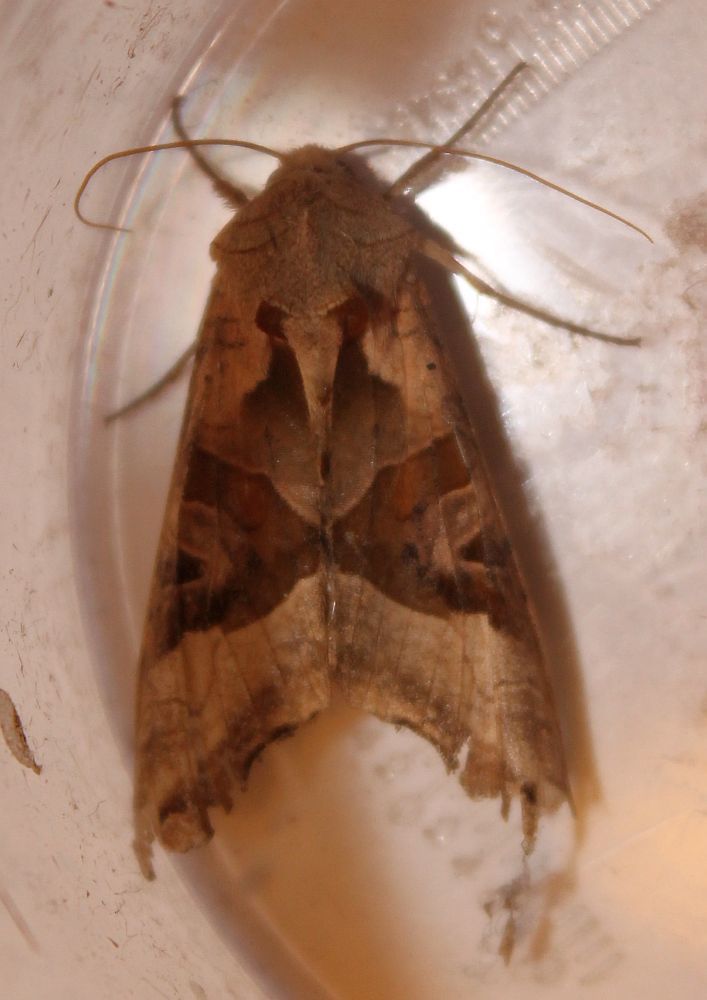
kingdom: Animalia
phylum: Arthropoda
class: Insecta
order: Lepidoptera
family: Noctuidae
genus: Phlogophora
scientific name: Phlogophora meticulosa
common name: Angle shades
